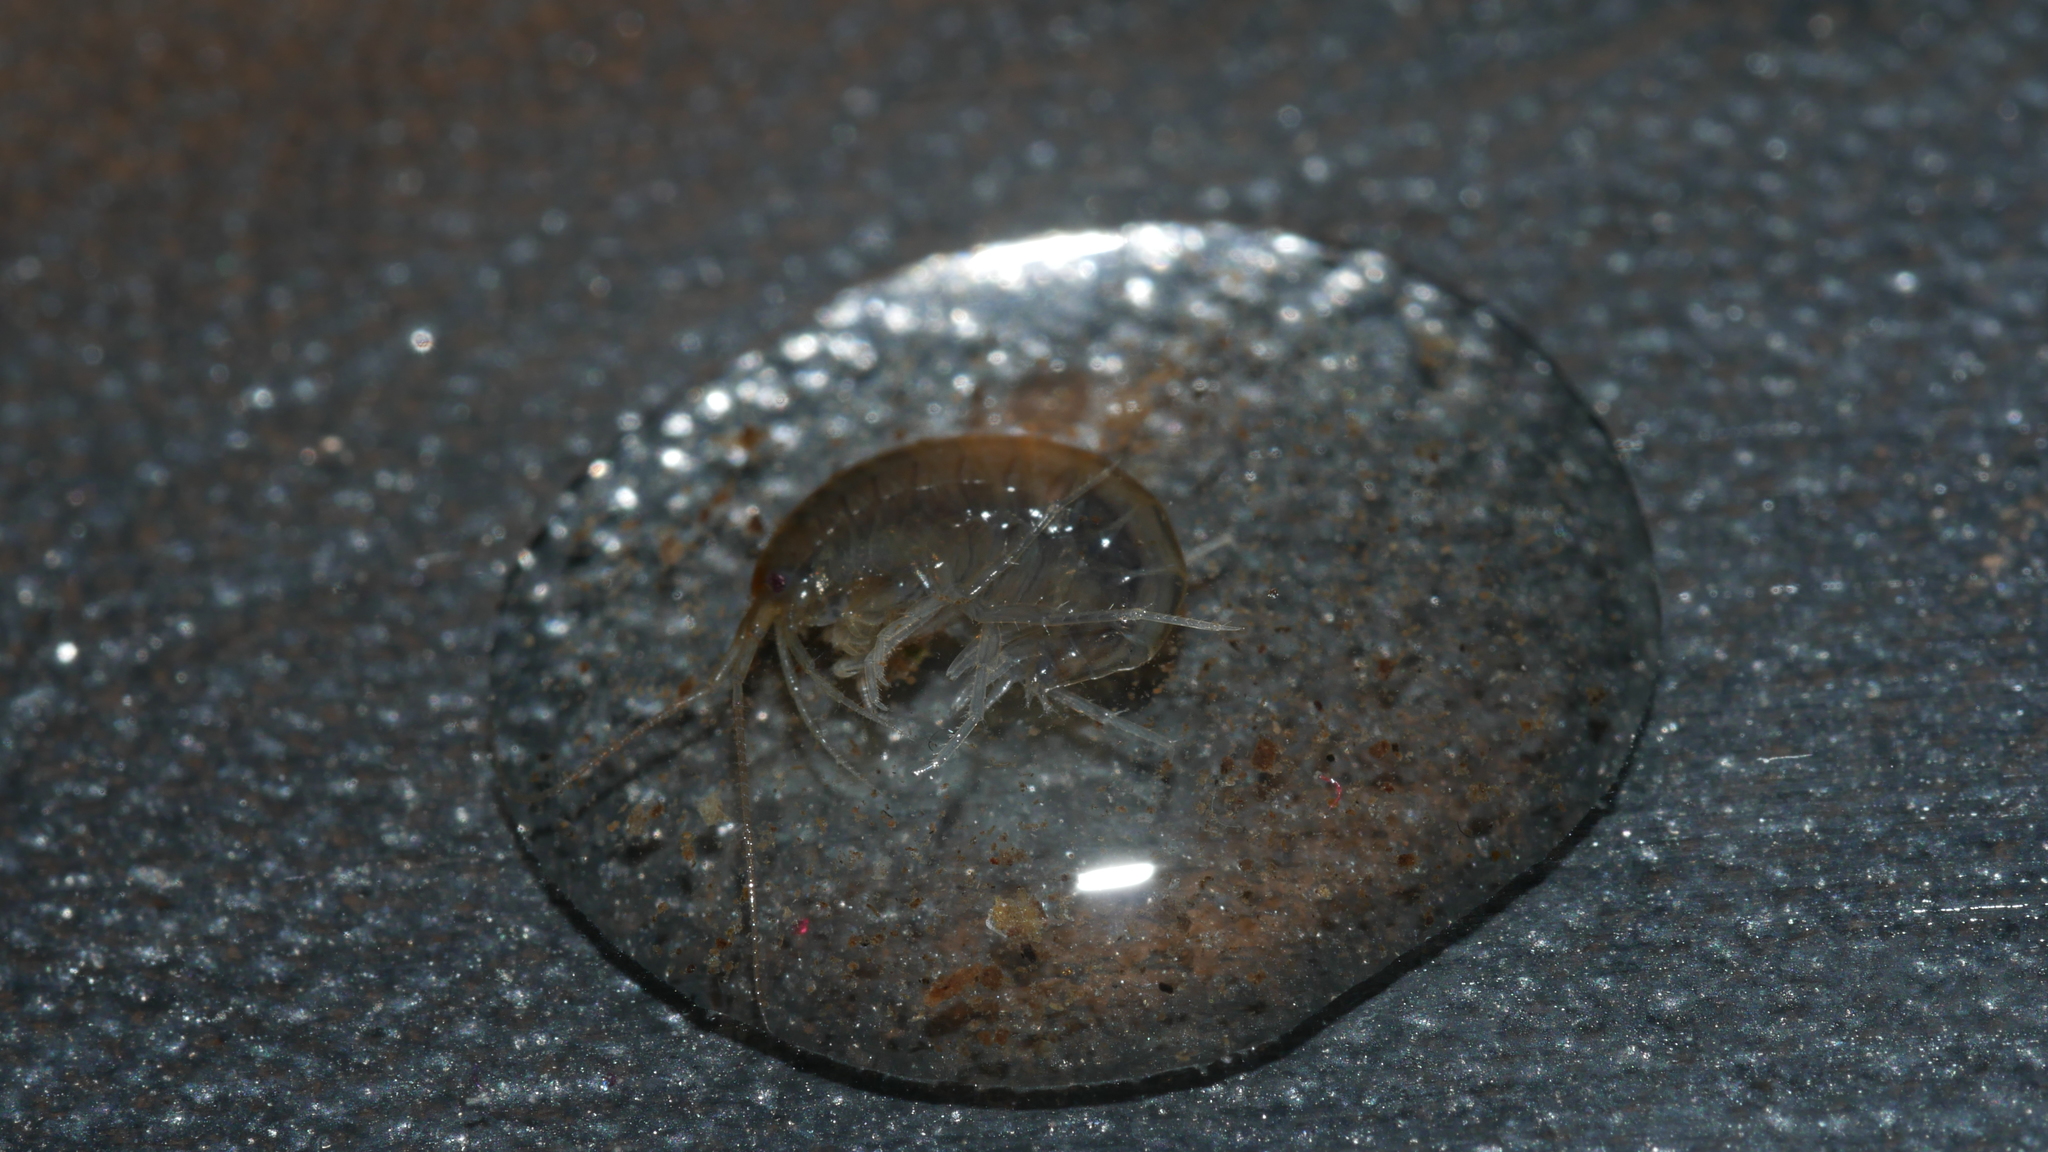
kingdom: Animalia
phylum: Arthropoda
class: Malacostraca
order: Amphipoda
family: Crangonyctidae
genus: Sicifera
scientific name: Sicifera chamberlaini
